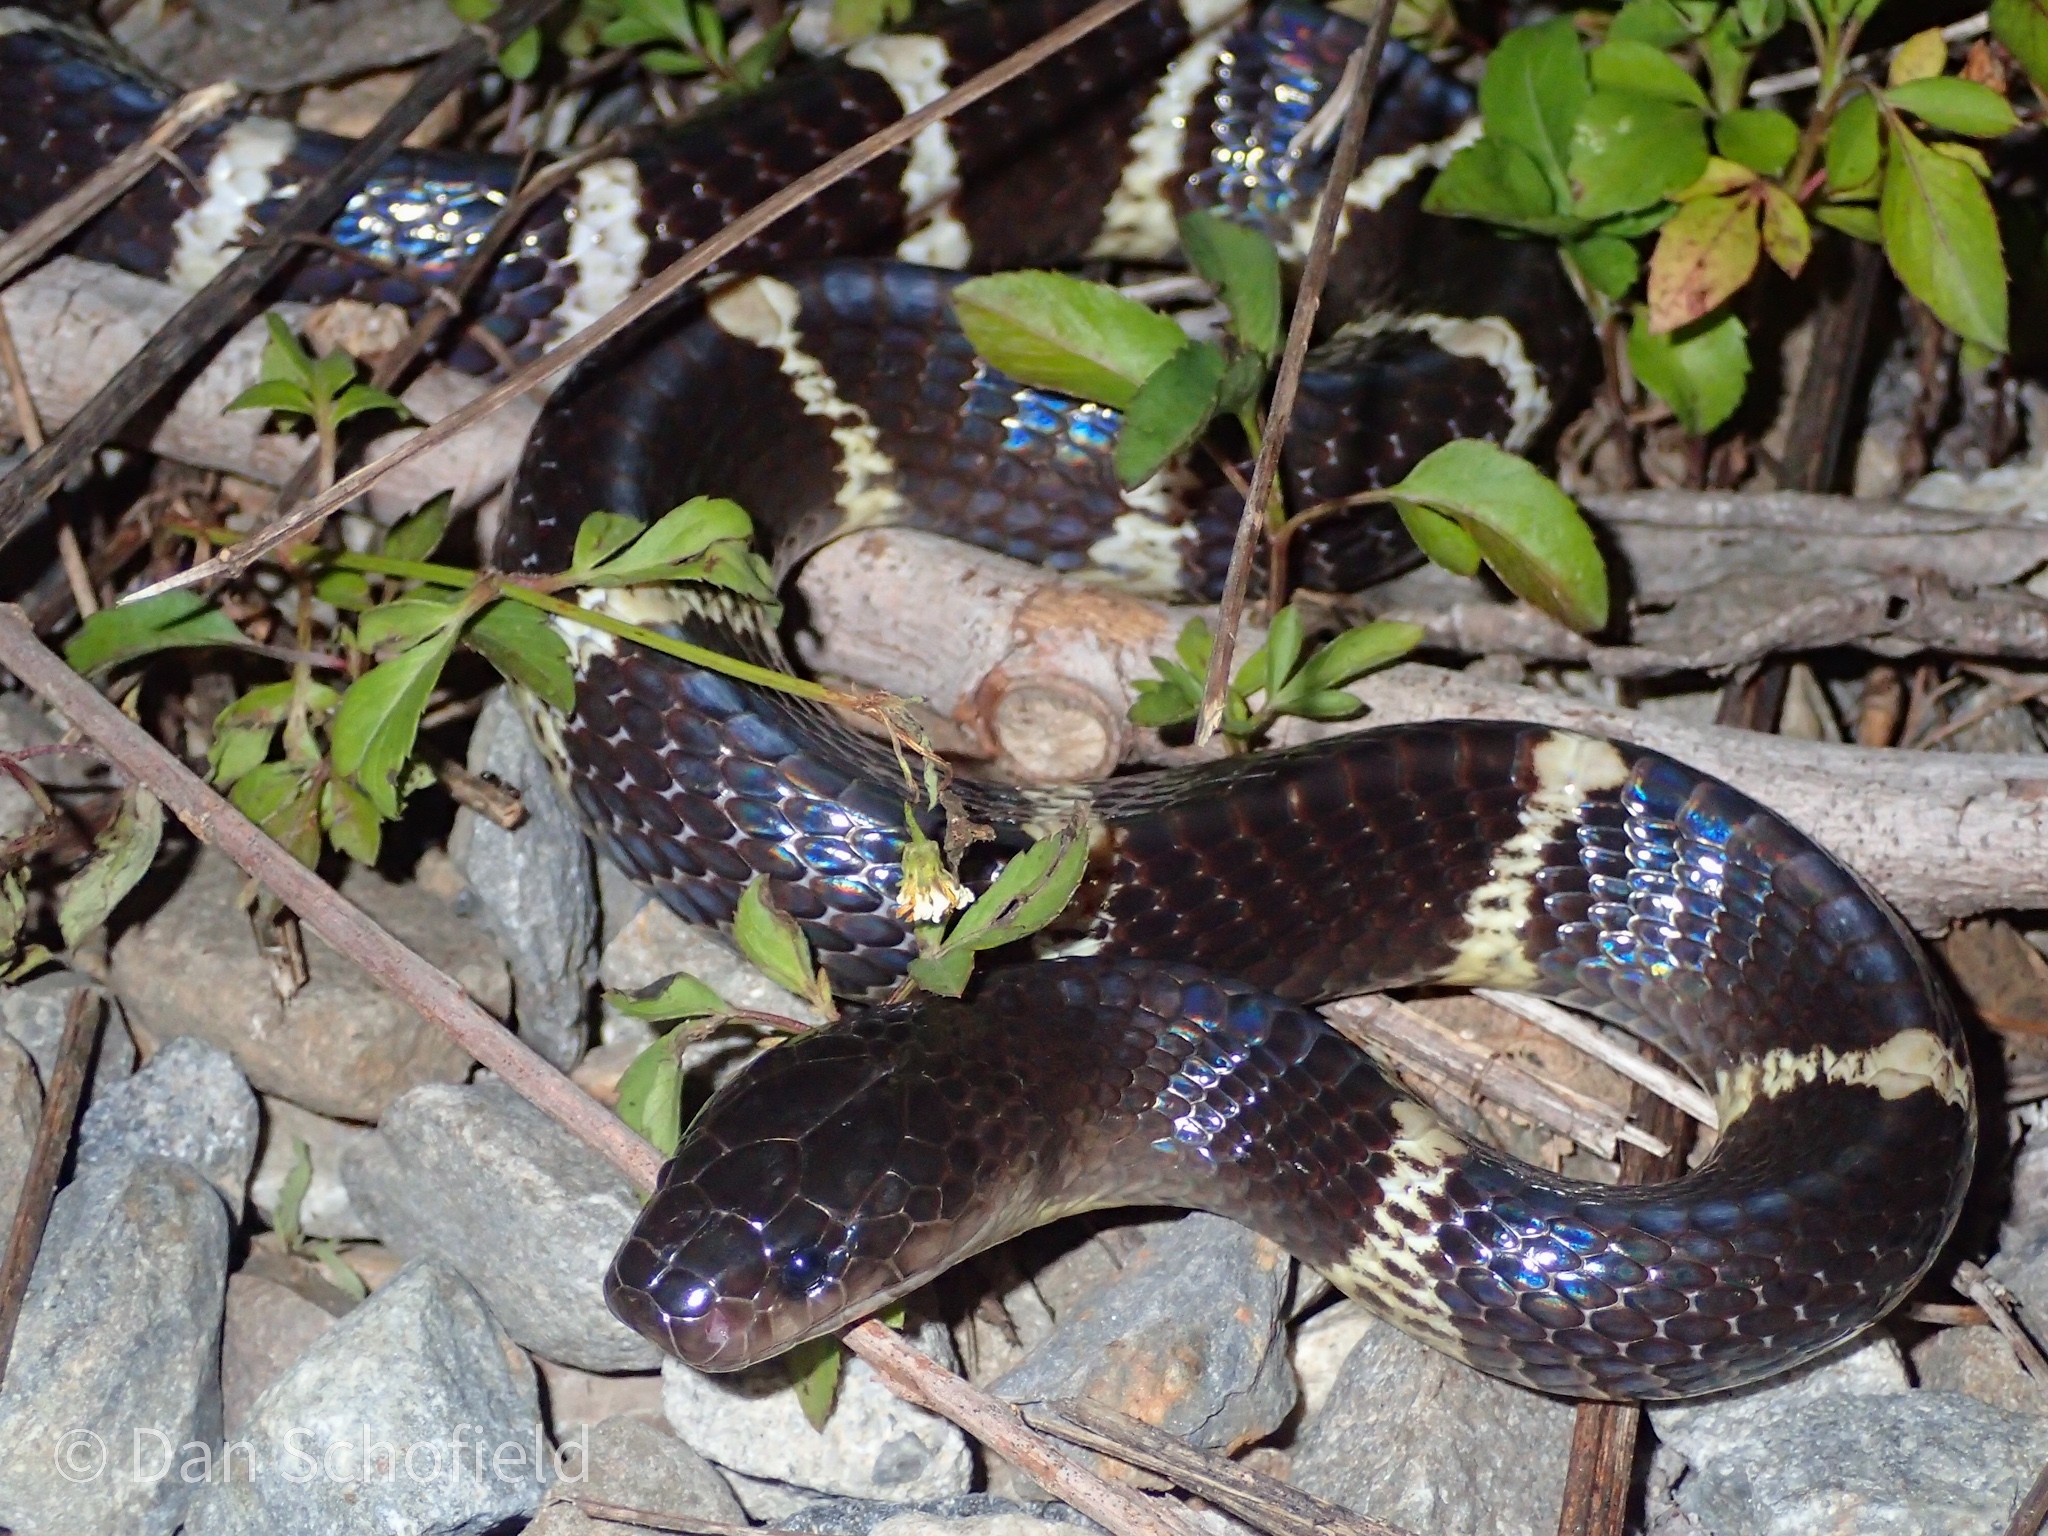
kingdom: Animalia
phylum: Chordata
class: Squamata
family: Elapidae
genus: Bungarus
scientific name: Bungarus multicinctus
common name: Many-banded krait
